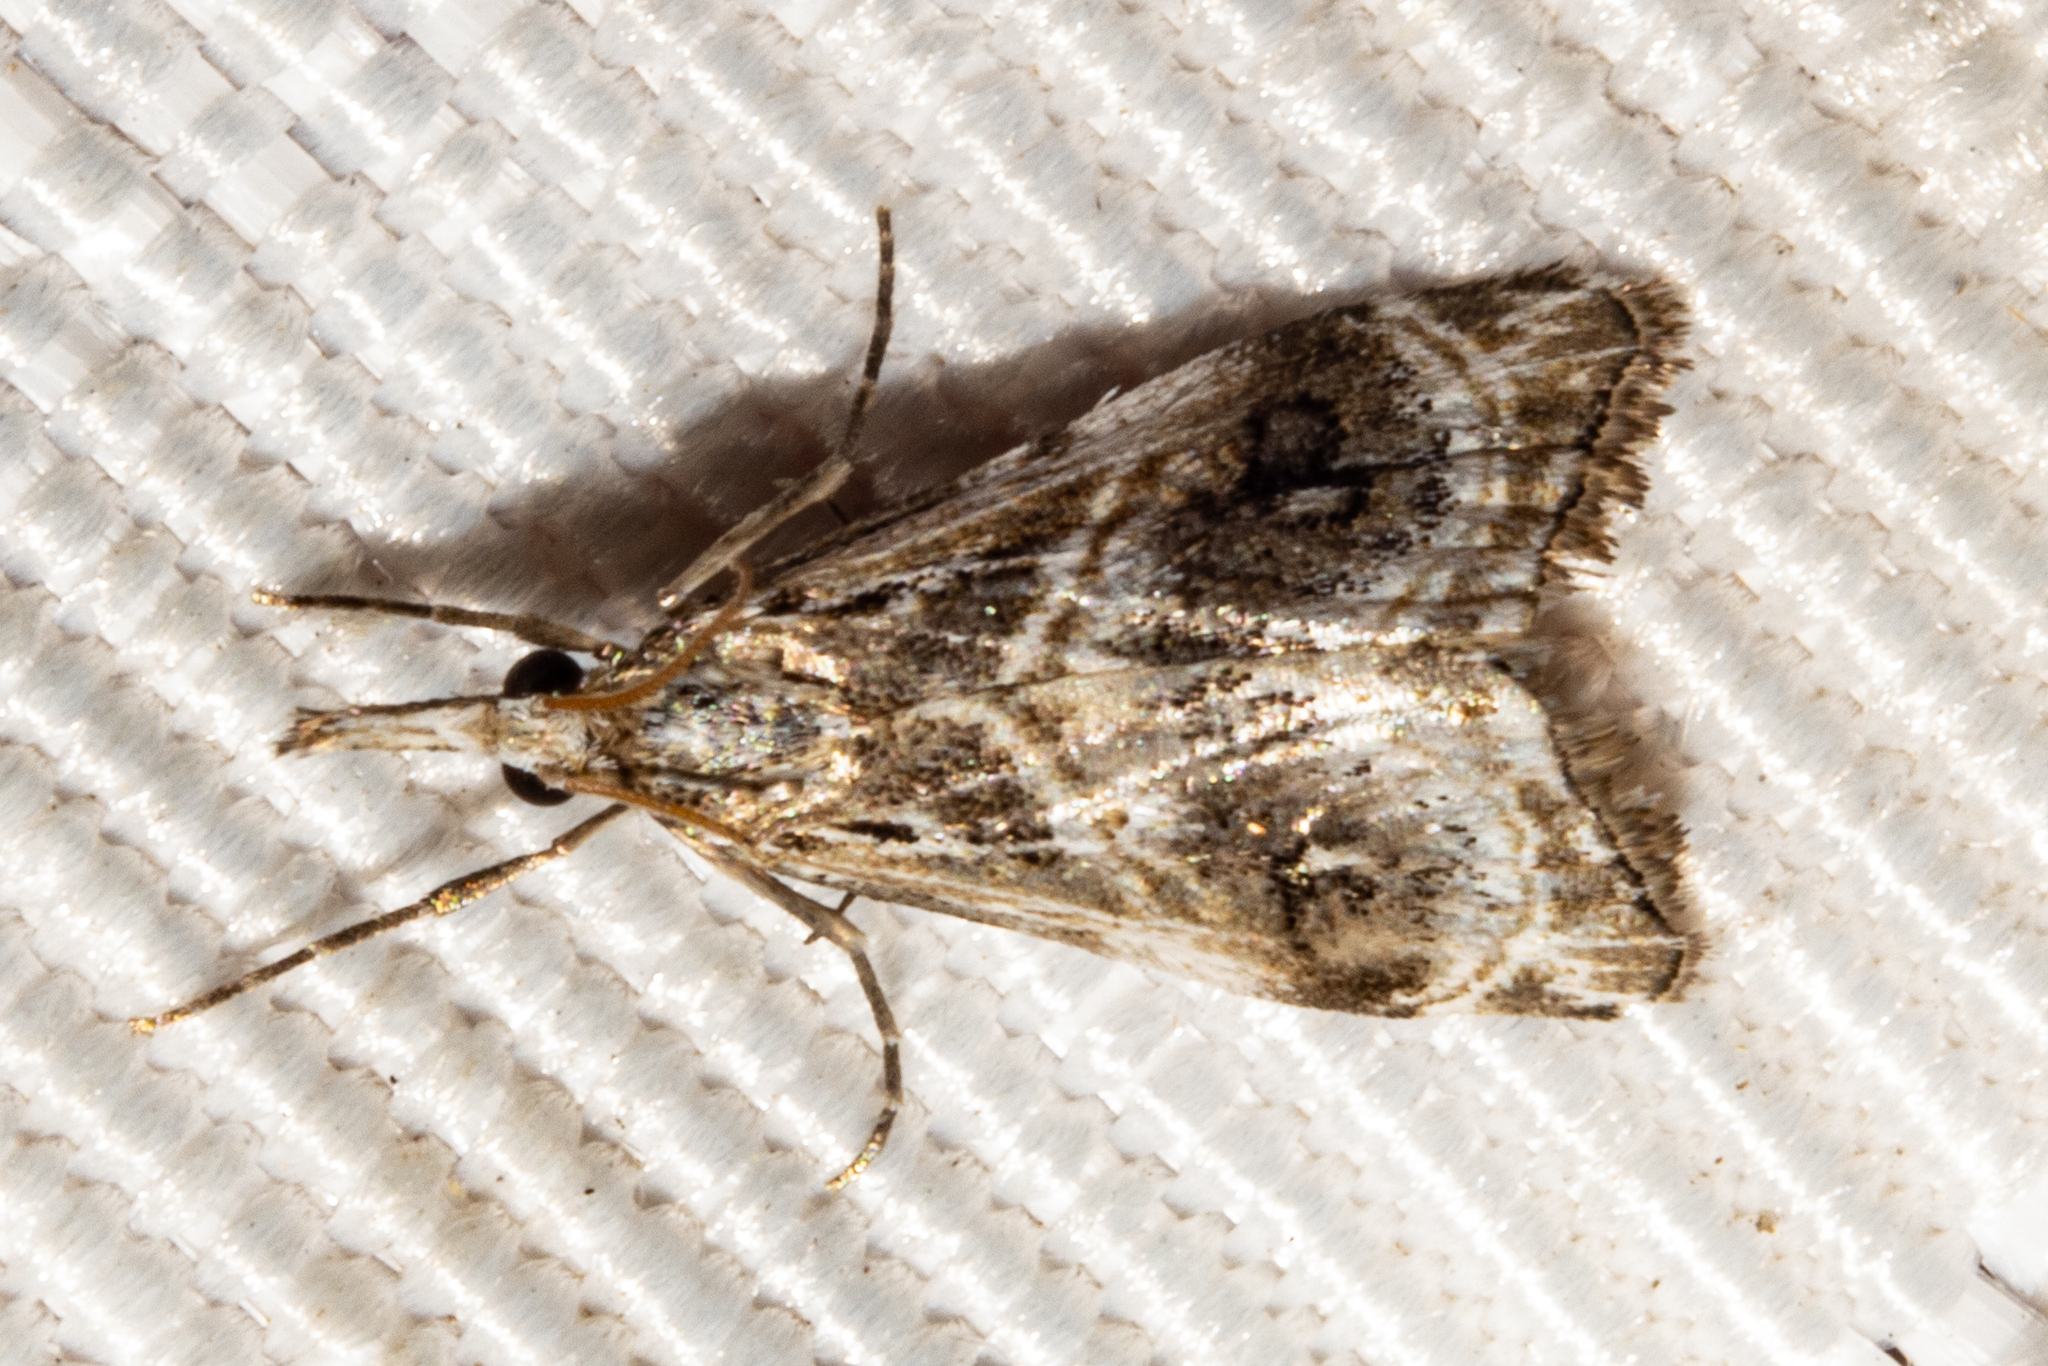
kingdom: Animalia
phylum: Arthropoda
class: Insecta
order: Lepidoptera
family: Crambidae
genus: Gadira
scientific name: Gadira acerella
